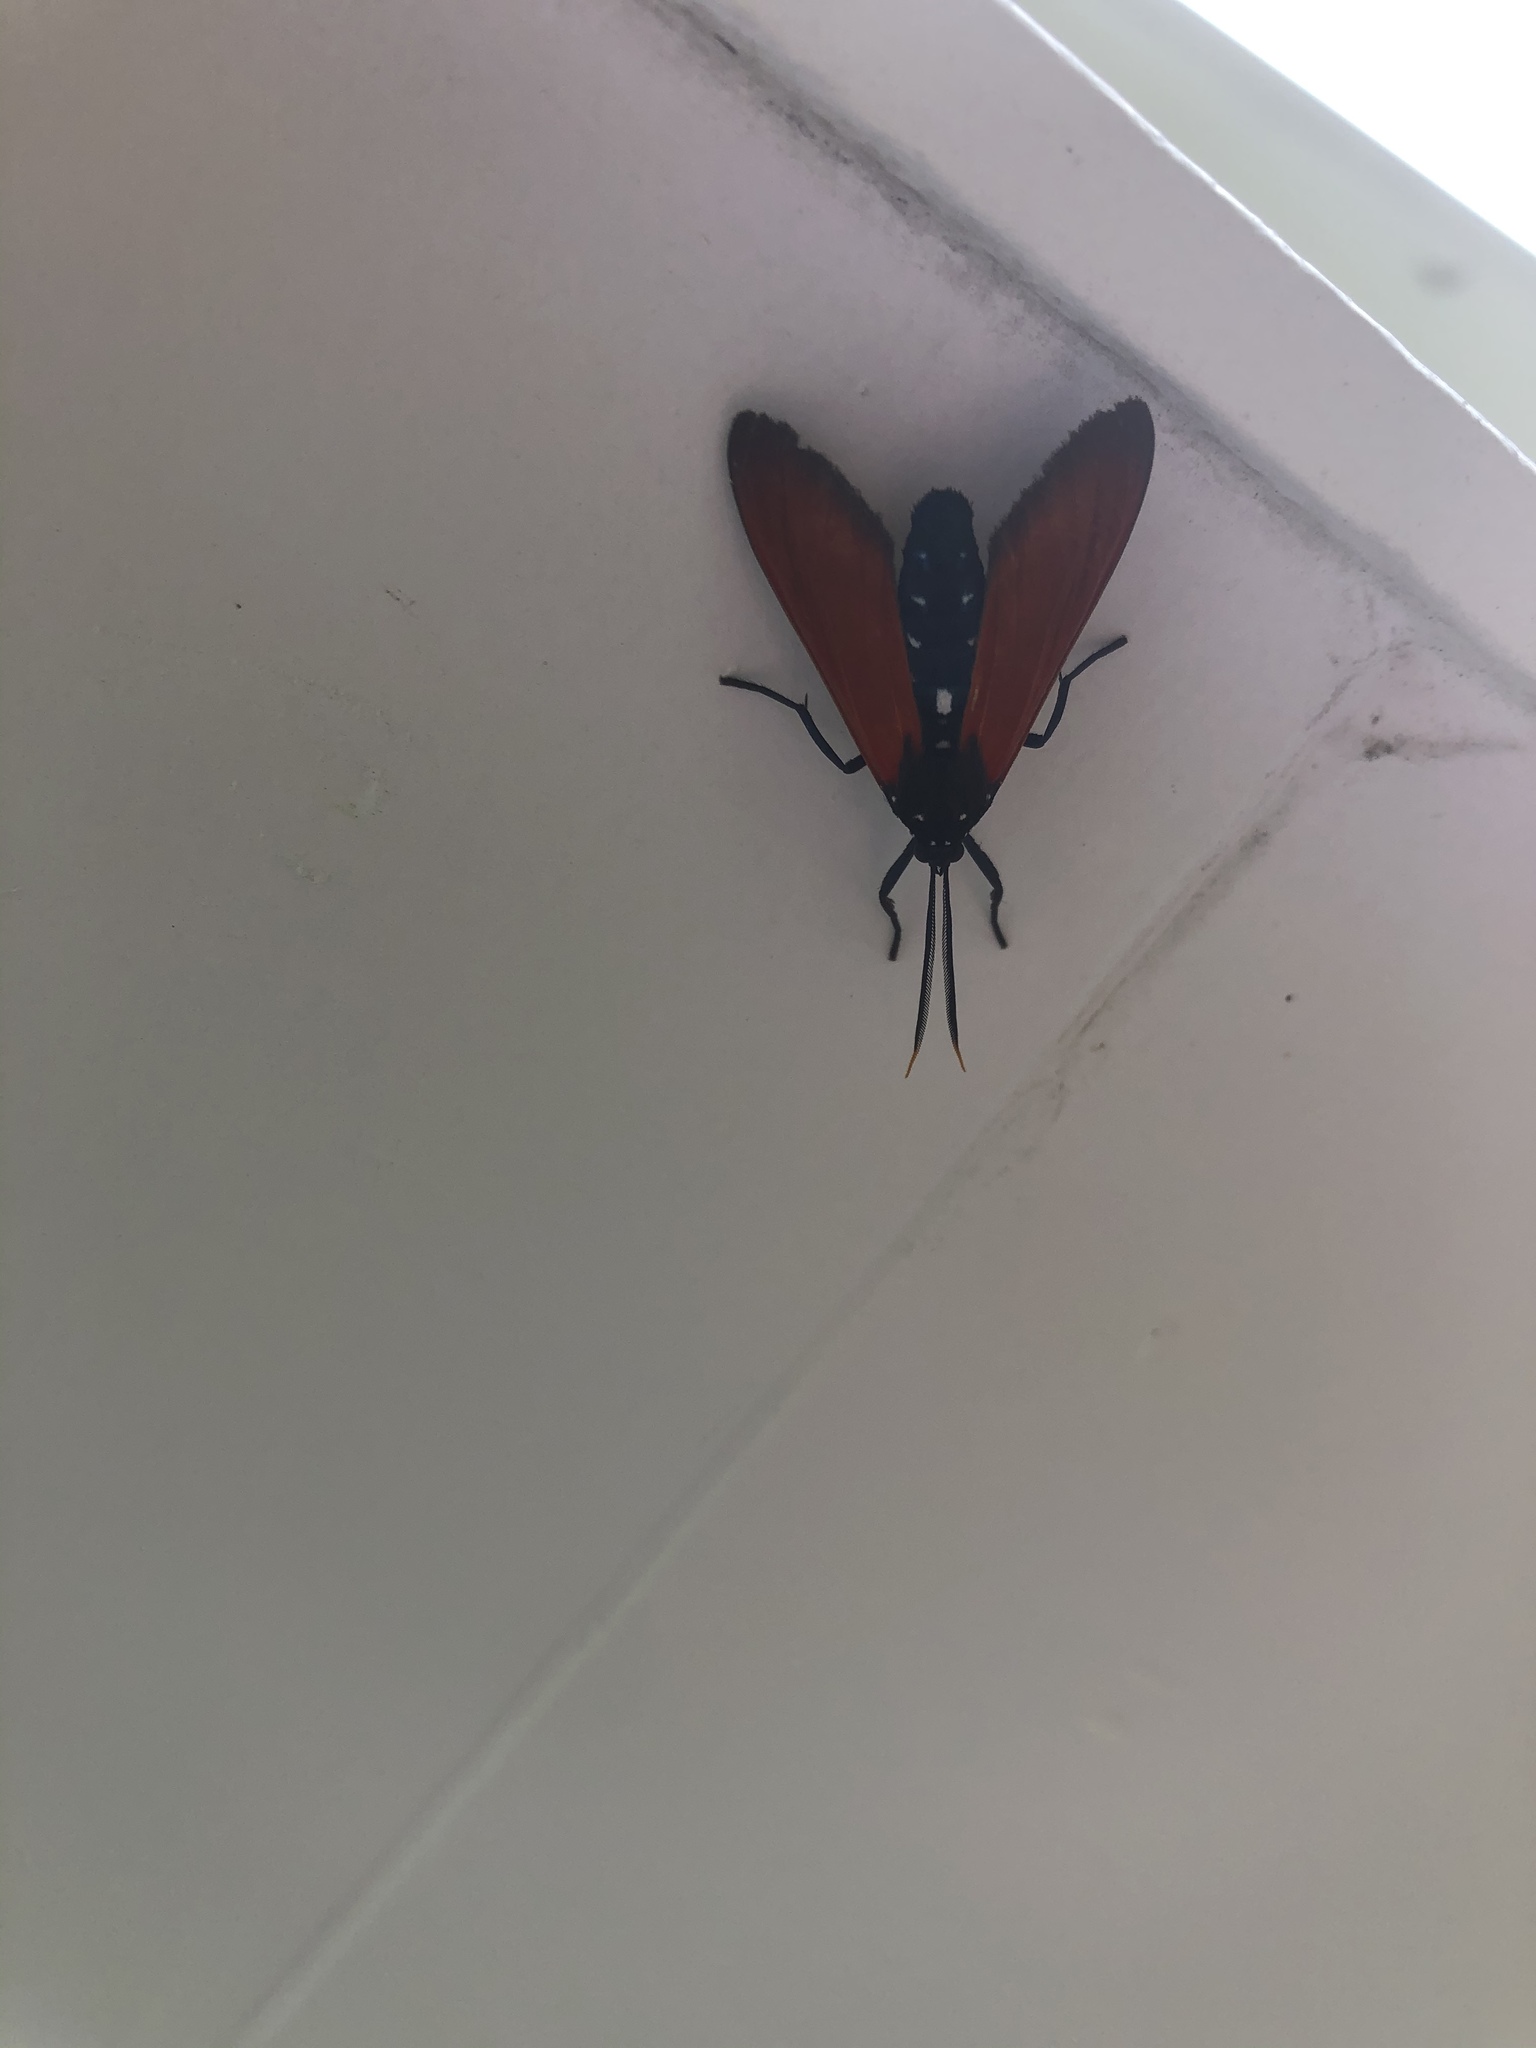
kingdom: Animalia
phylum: Arthropoda
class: Insecta
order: Lepidoptera
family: Erebidae
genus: Empyreuma
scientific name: Empyreuma pugione
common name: Spotted oleander caterpillar moth
